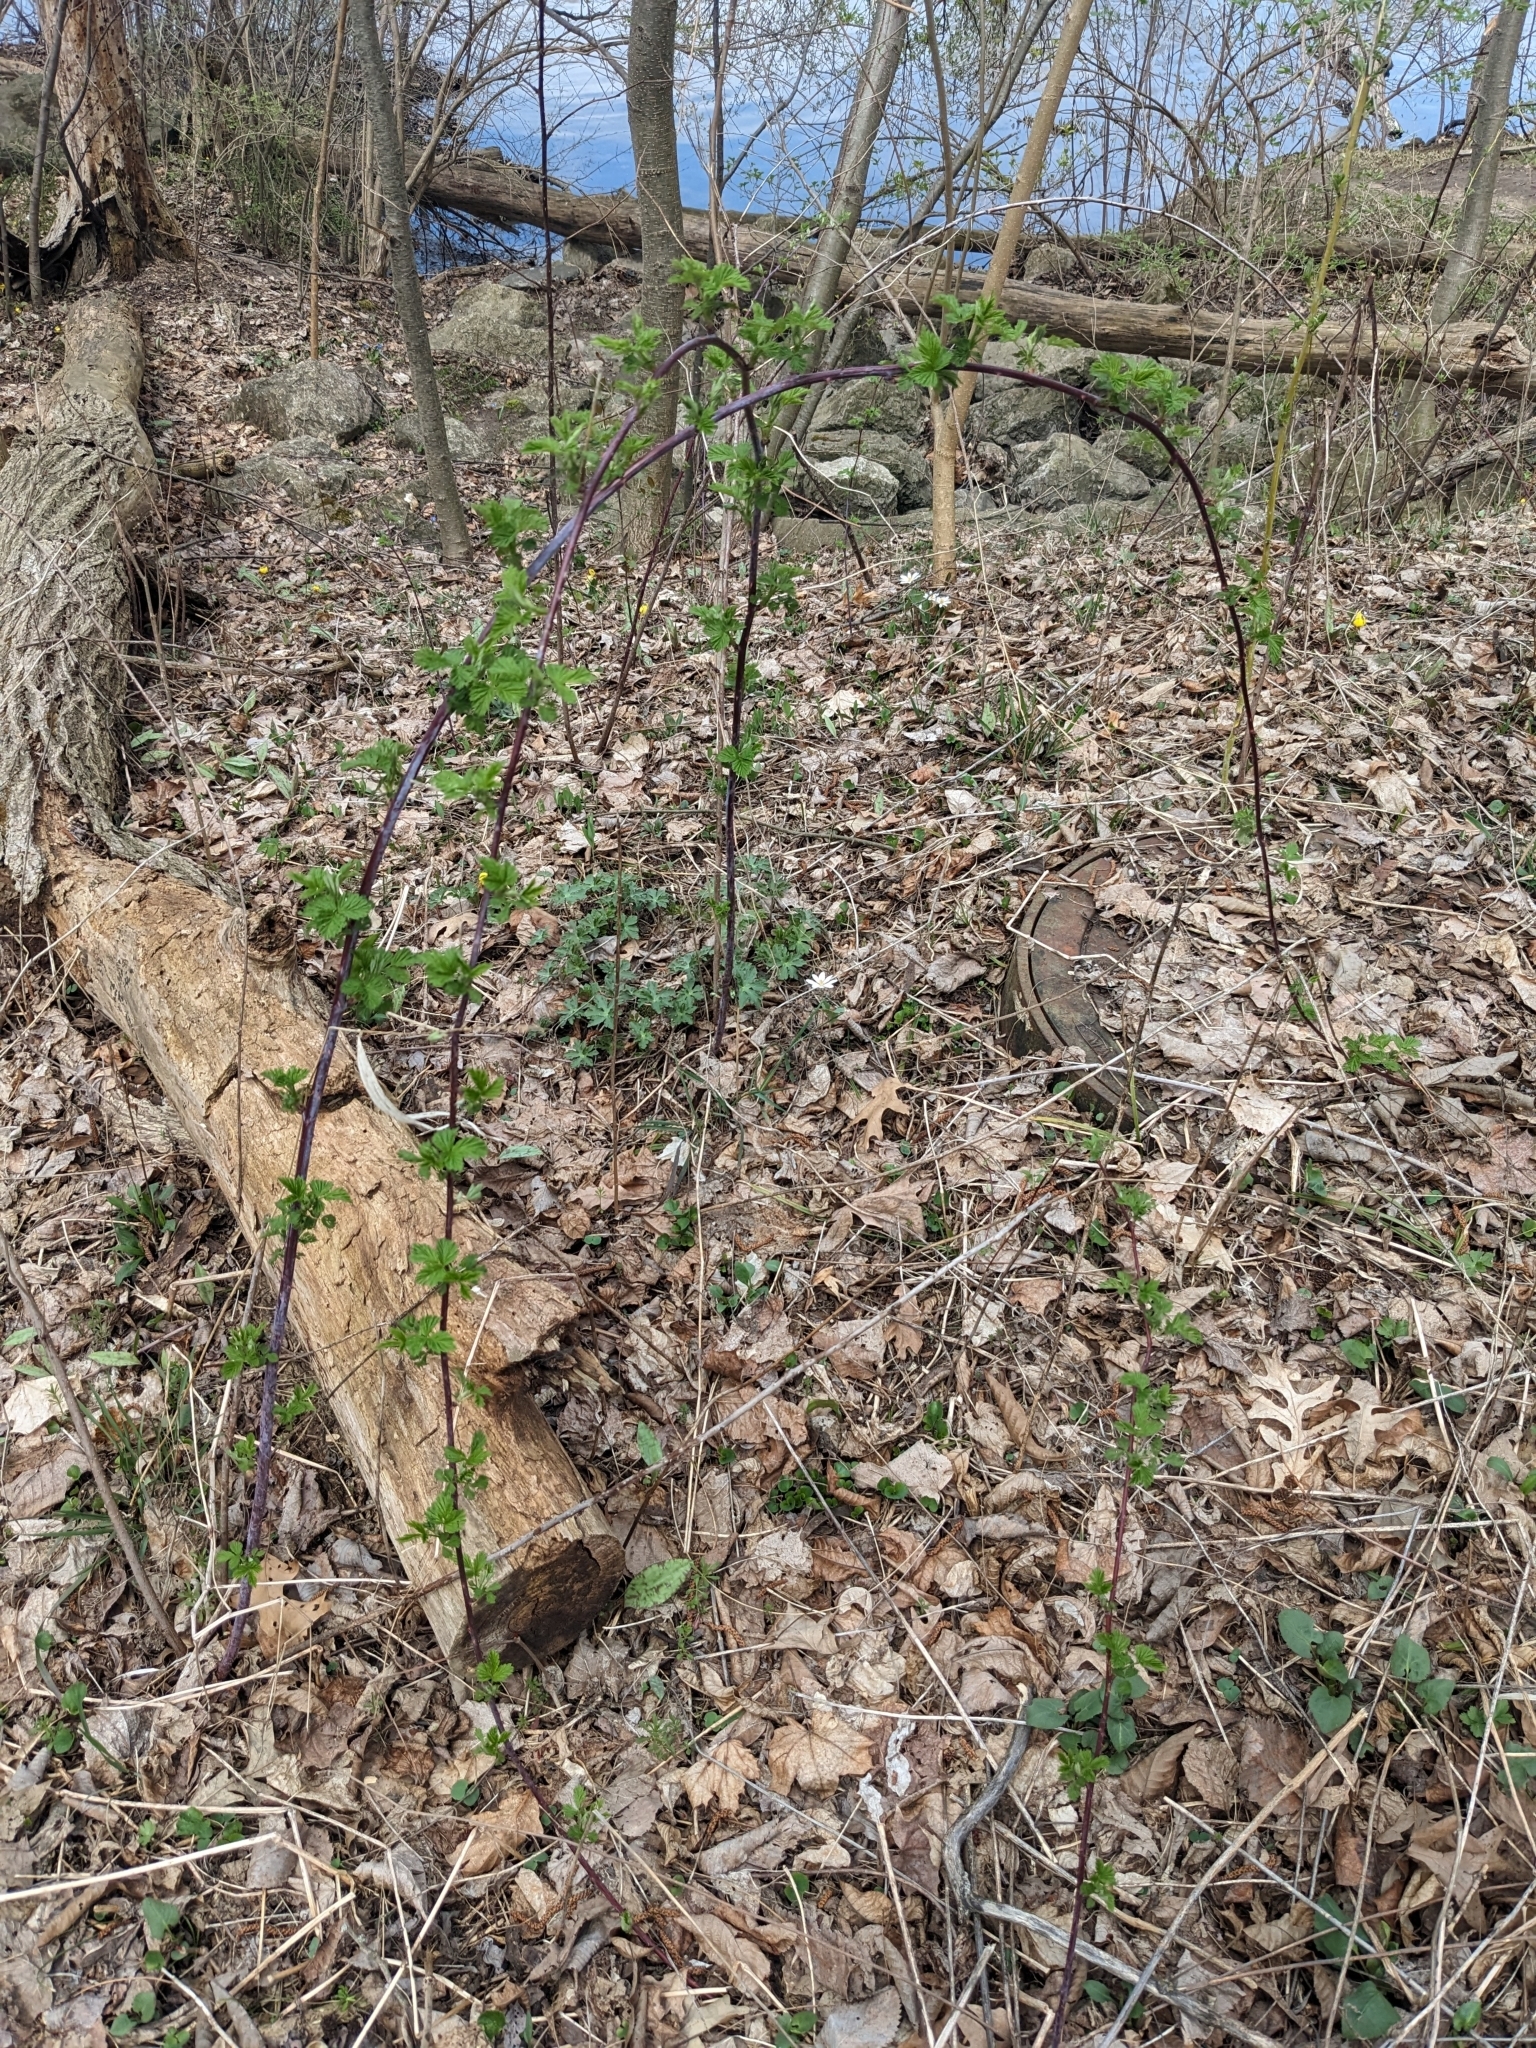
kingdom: Plantae
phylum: Tracheophyta
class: Magnoliopsida
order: Rosales
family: Rosaceae
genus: Rubus
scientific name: Rubus occidentalis
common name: Black raspberry
